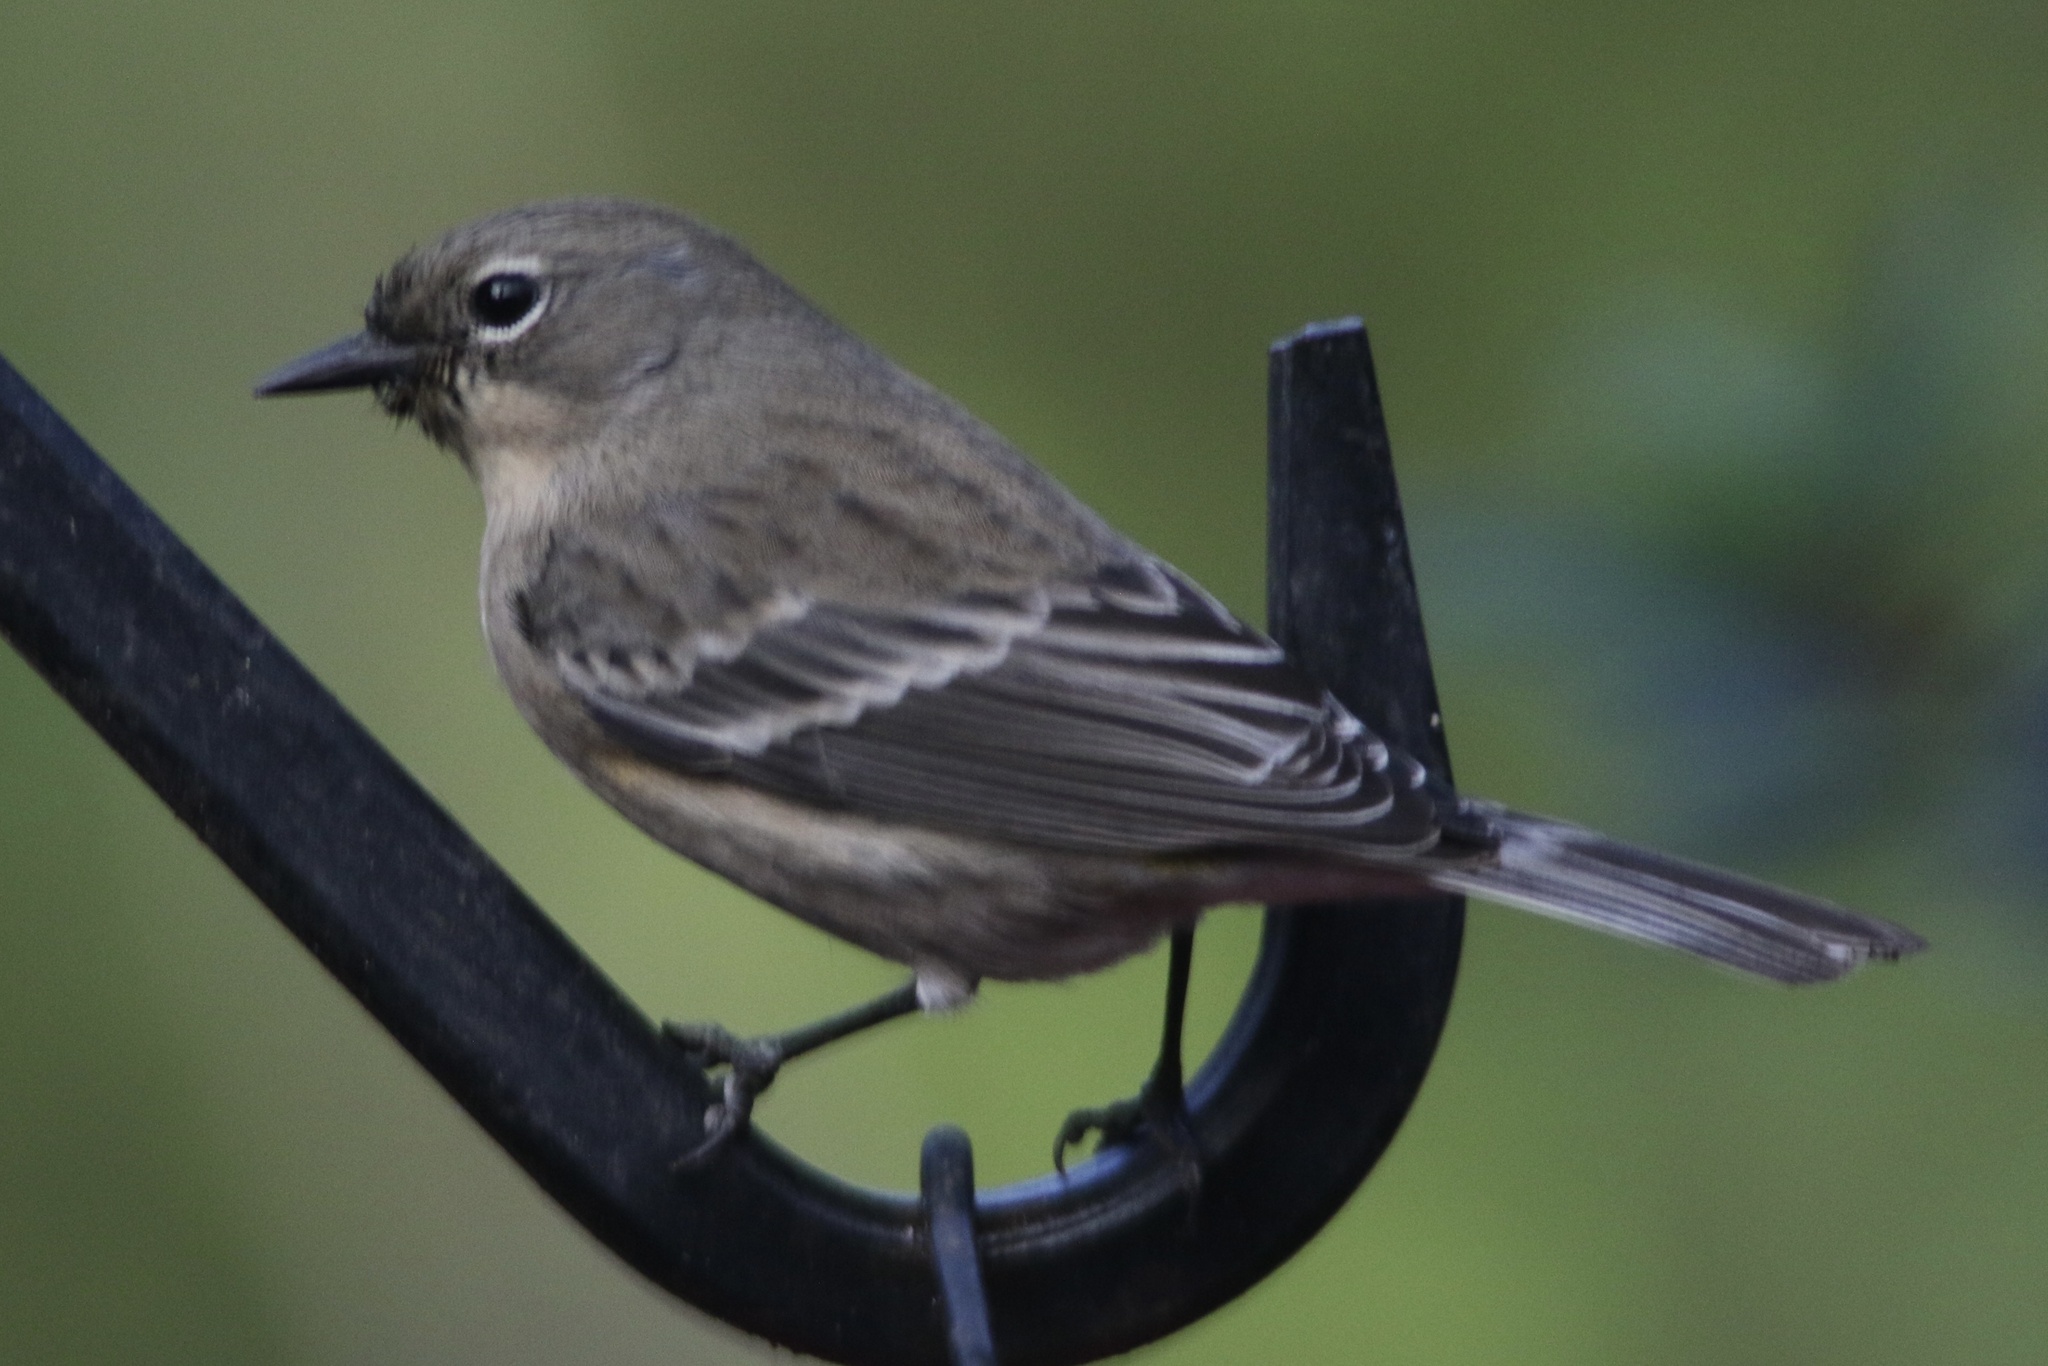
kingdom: Animalia
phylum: Chordata
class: Aves
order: Passeriformes
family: Parulidae
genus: Setophaga
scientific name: Setophaga coronata
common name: Myrtle warbler
